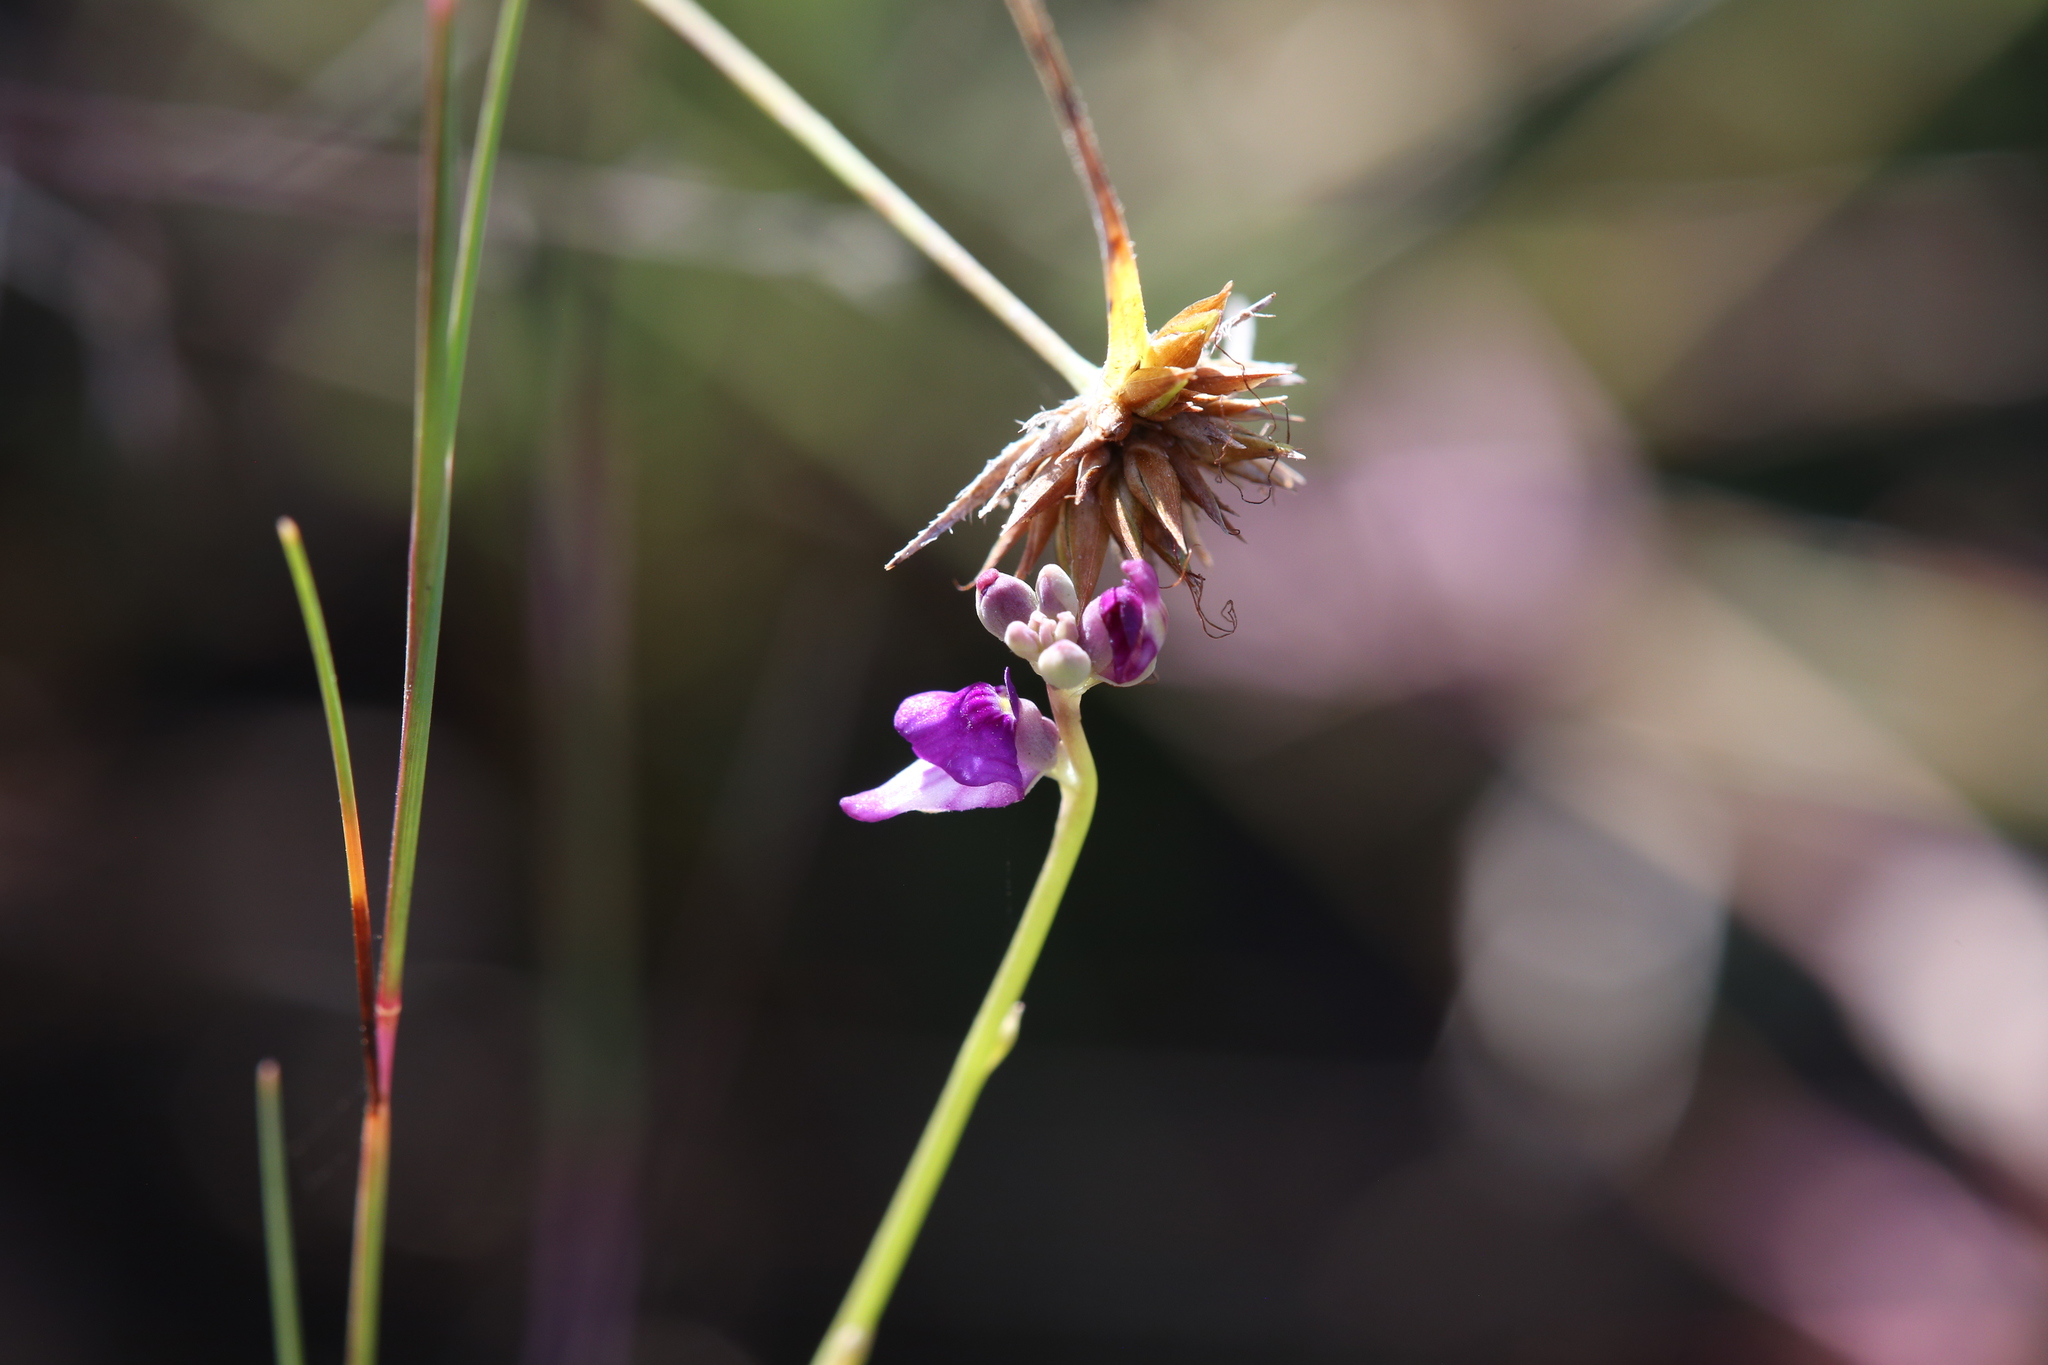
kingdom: Plantae
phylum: Tracheophyta
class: Magnoliopsida
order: Lamiales
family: Lentibulariaceae
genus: Utricularia
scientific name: Utricularia caerulea
